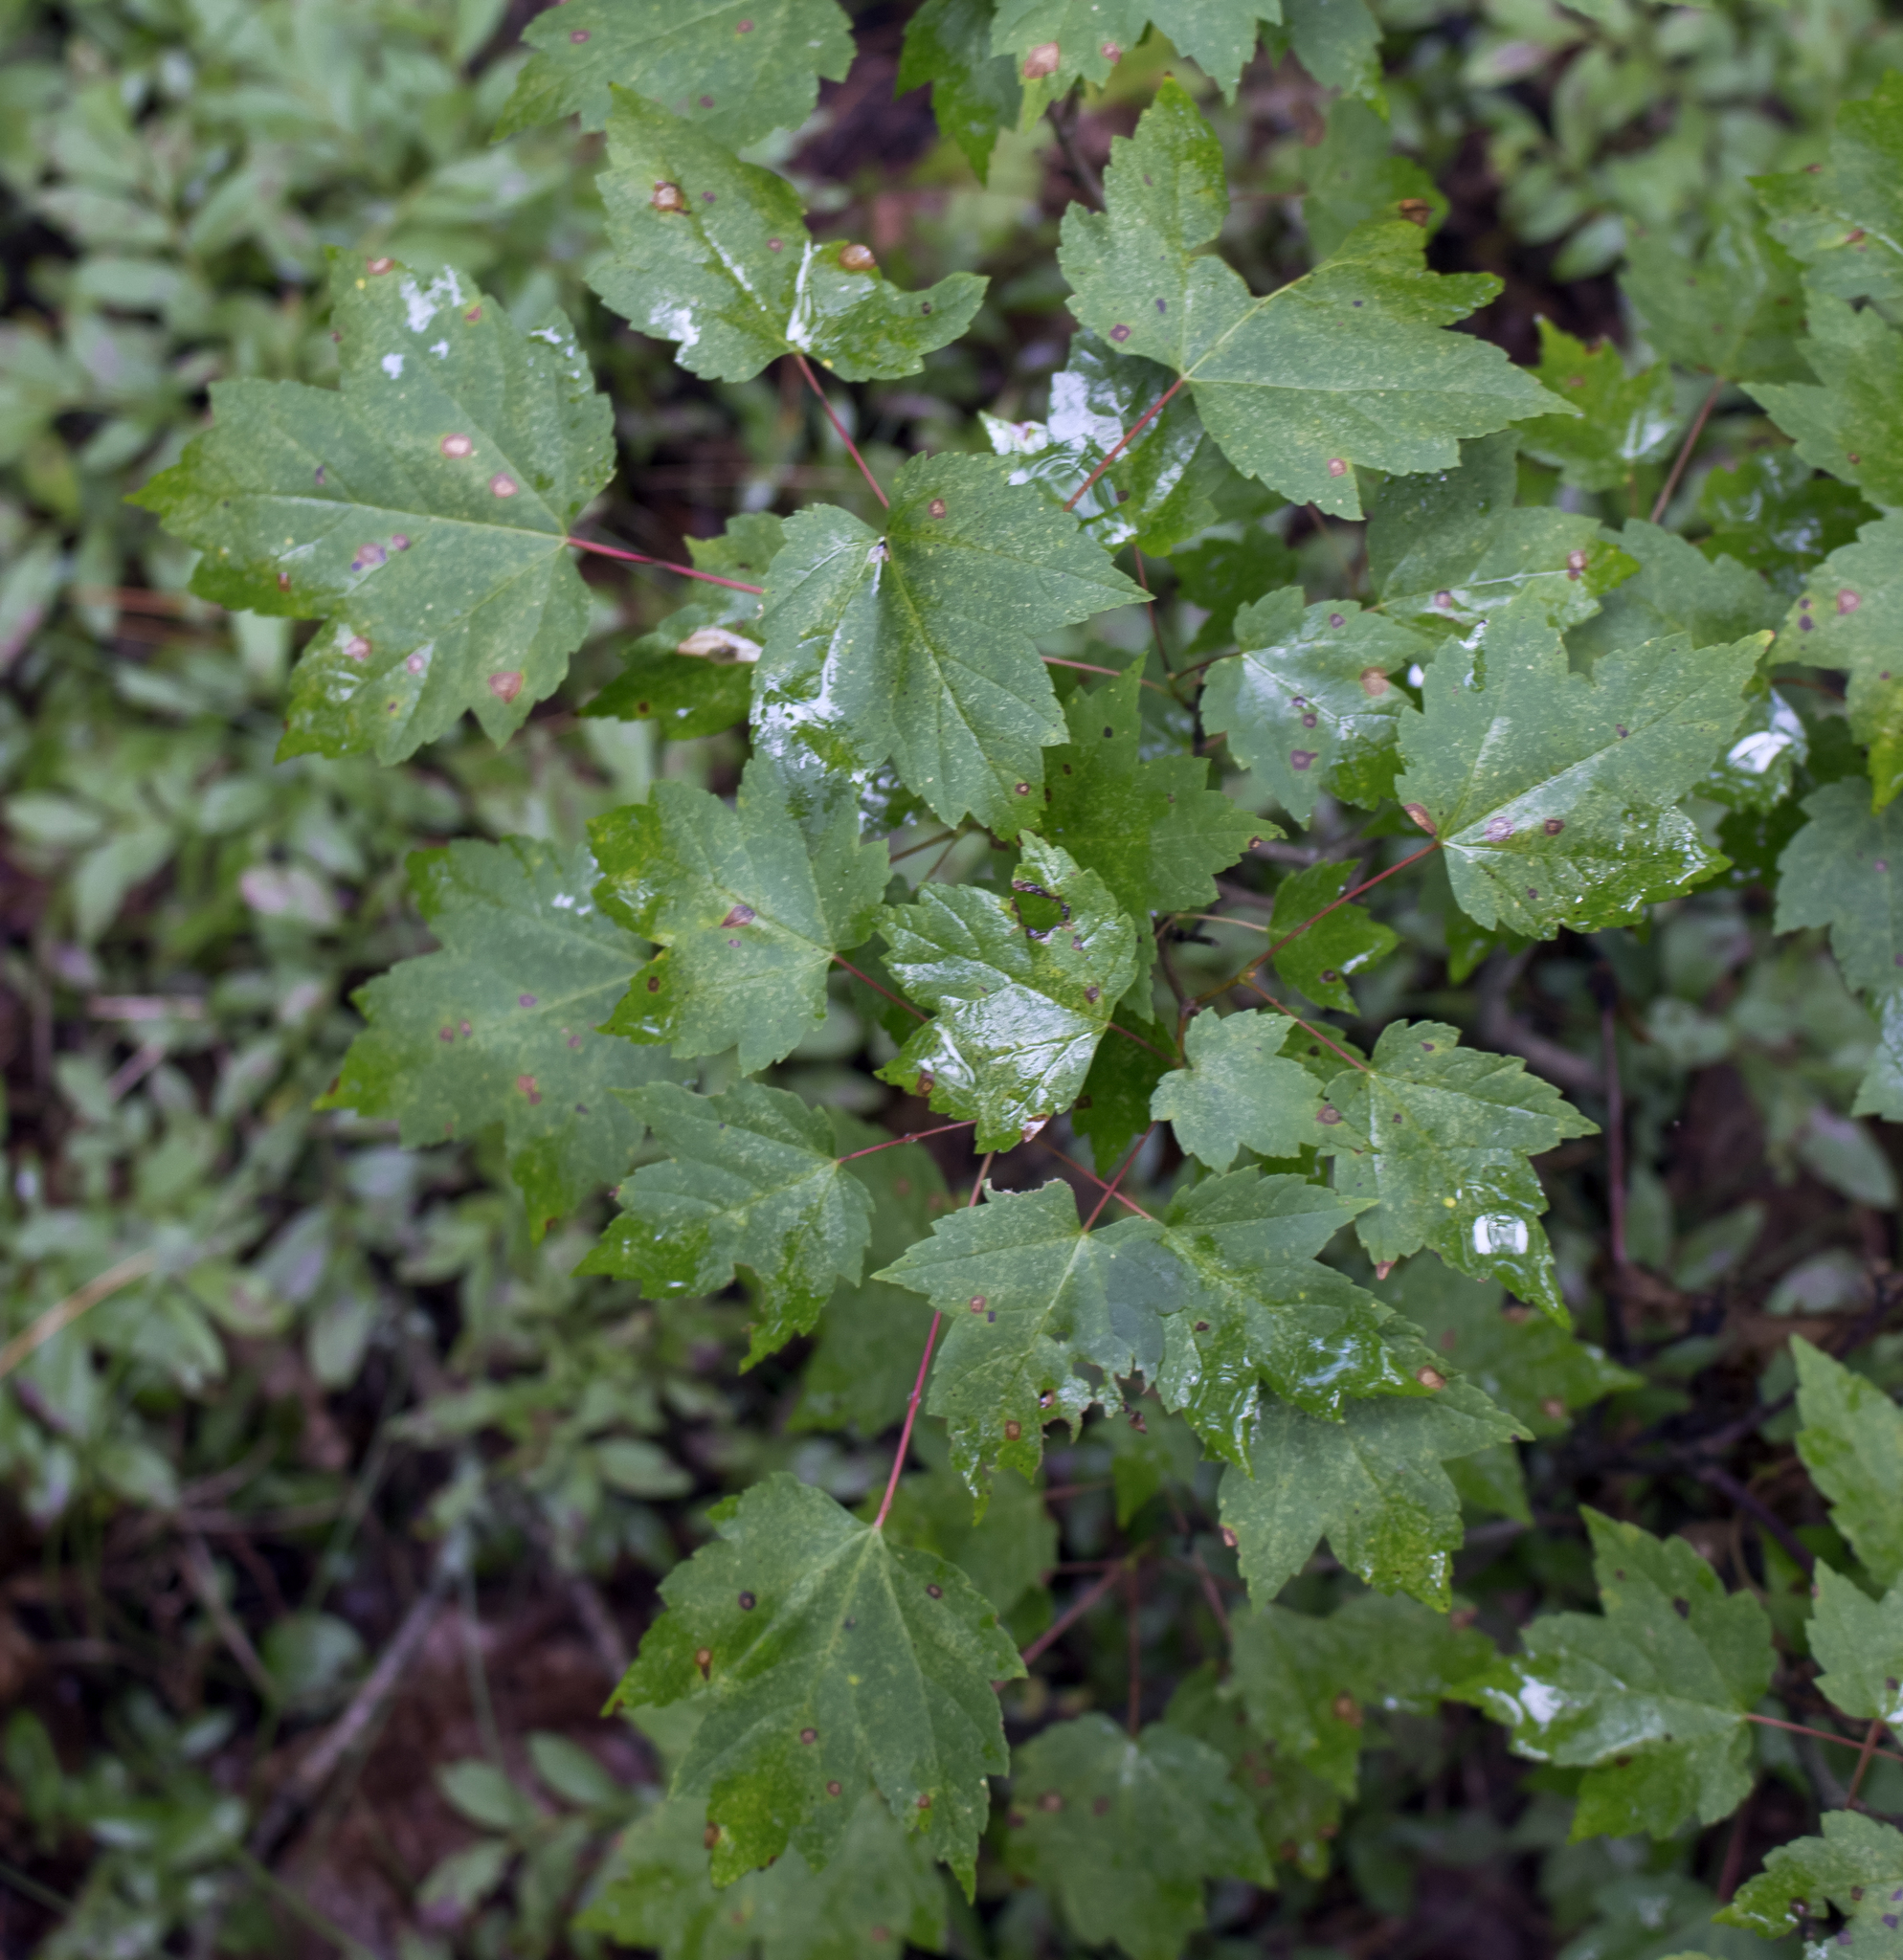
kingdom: Plantae
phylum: Tracheophyta
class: Magnoliopsida
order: Sapindales
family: Sapindaceae
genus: Acer
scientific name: Acer rubrum
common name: Red maple
